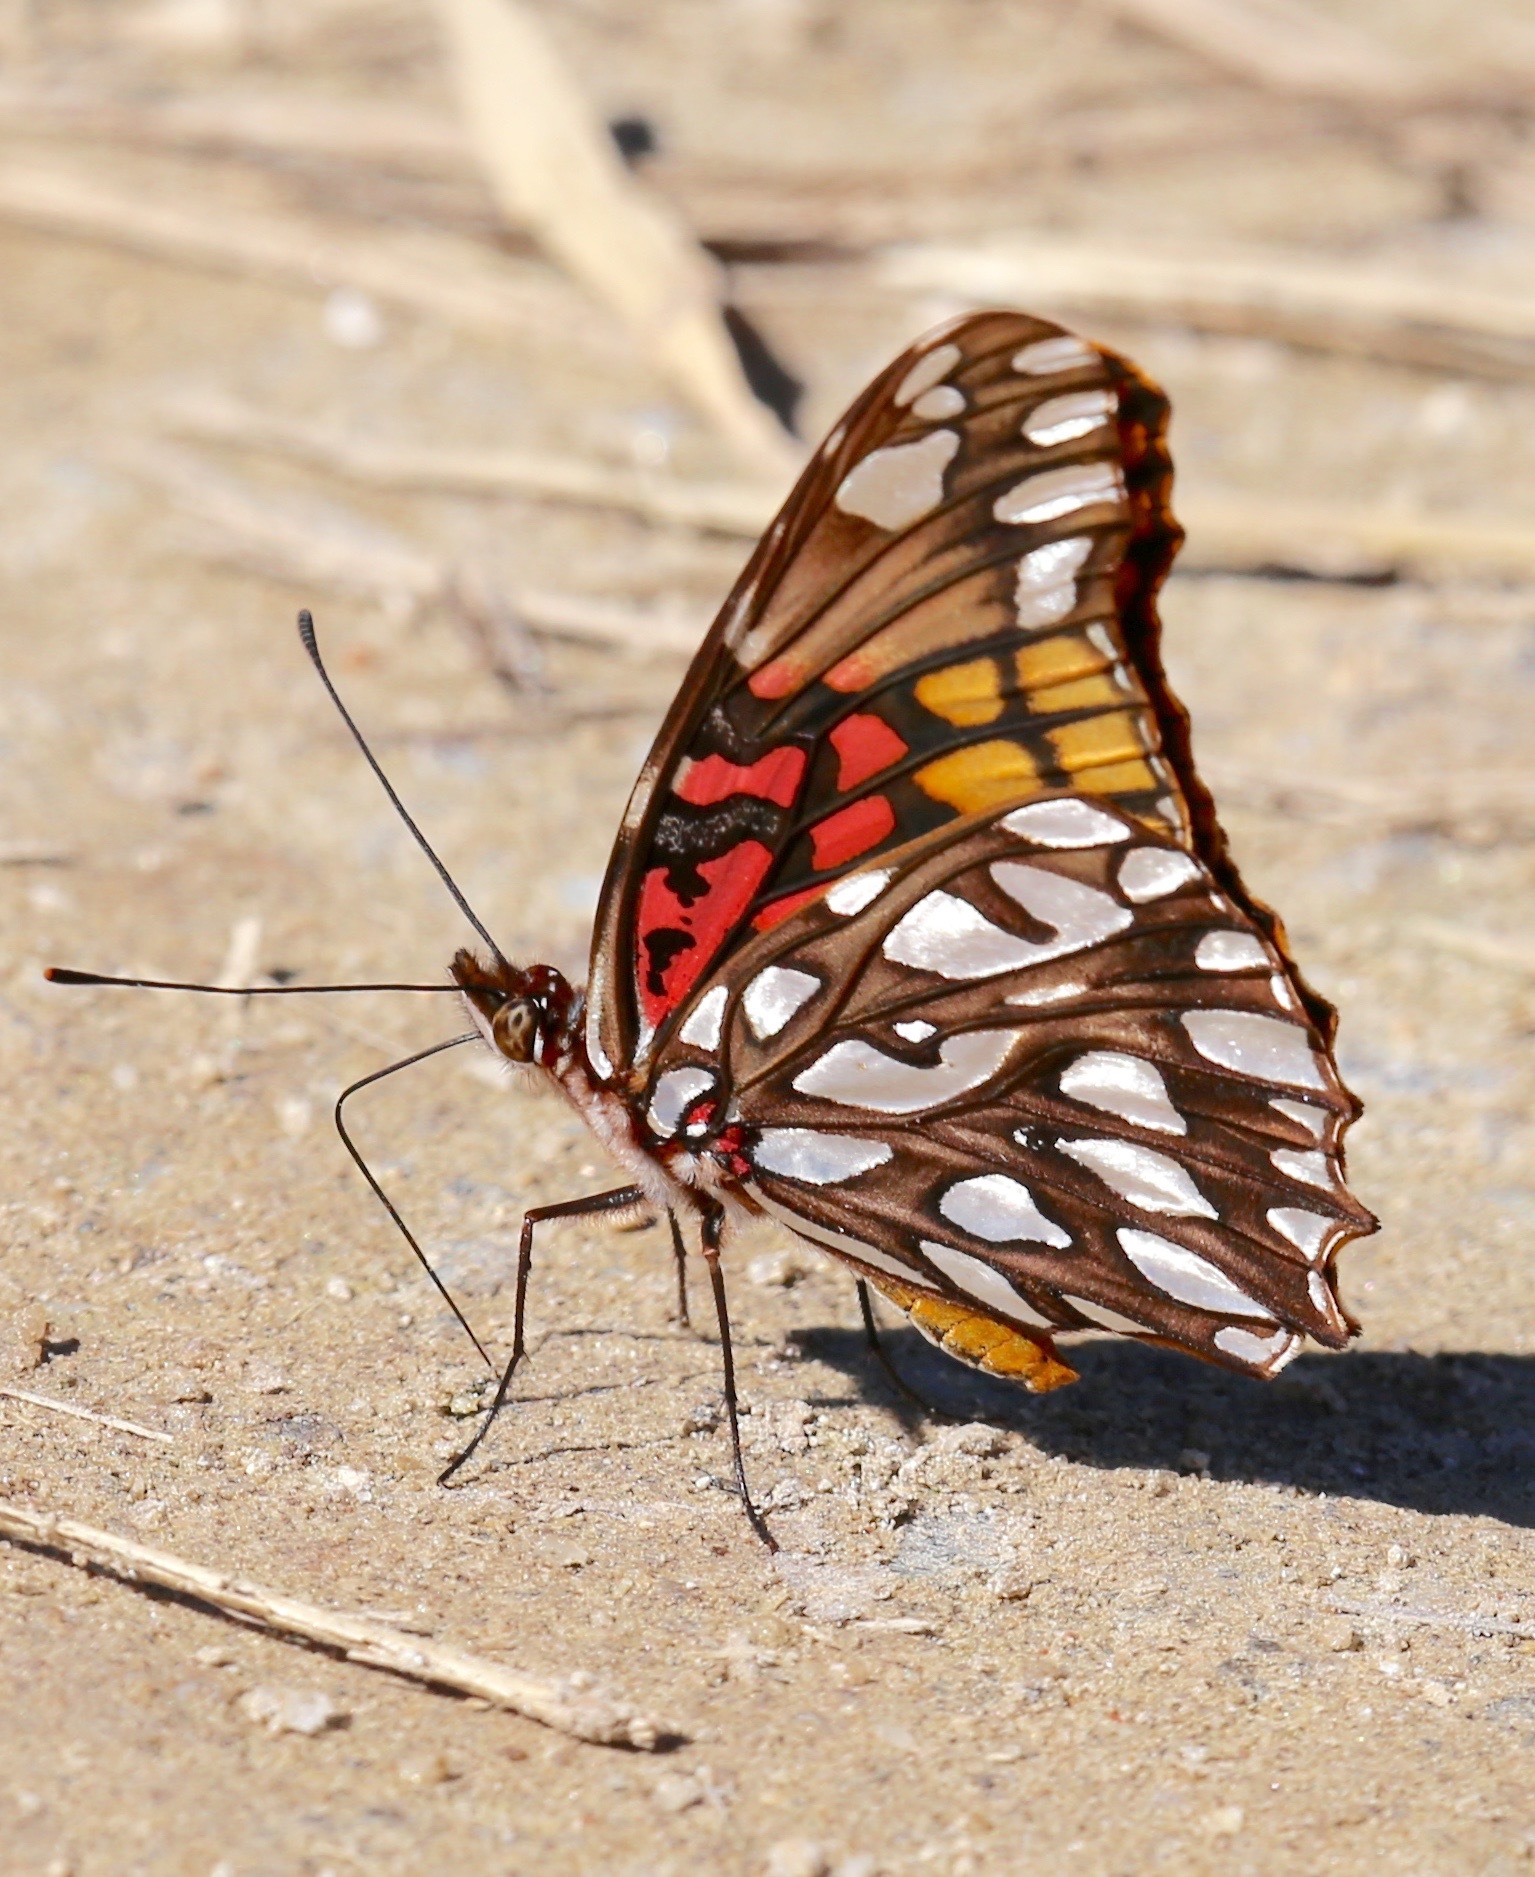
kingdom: Animalia
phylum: Arthropoda
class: Insecta
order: Lepidoptera
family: Nymphalidae
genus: Dione
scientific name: Dione moneta
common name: Mexican silverspot
